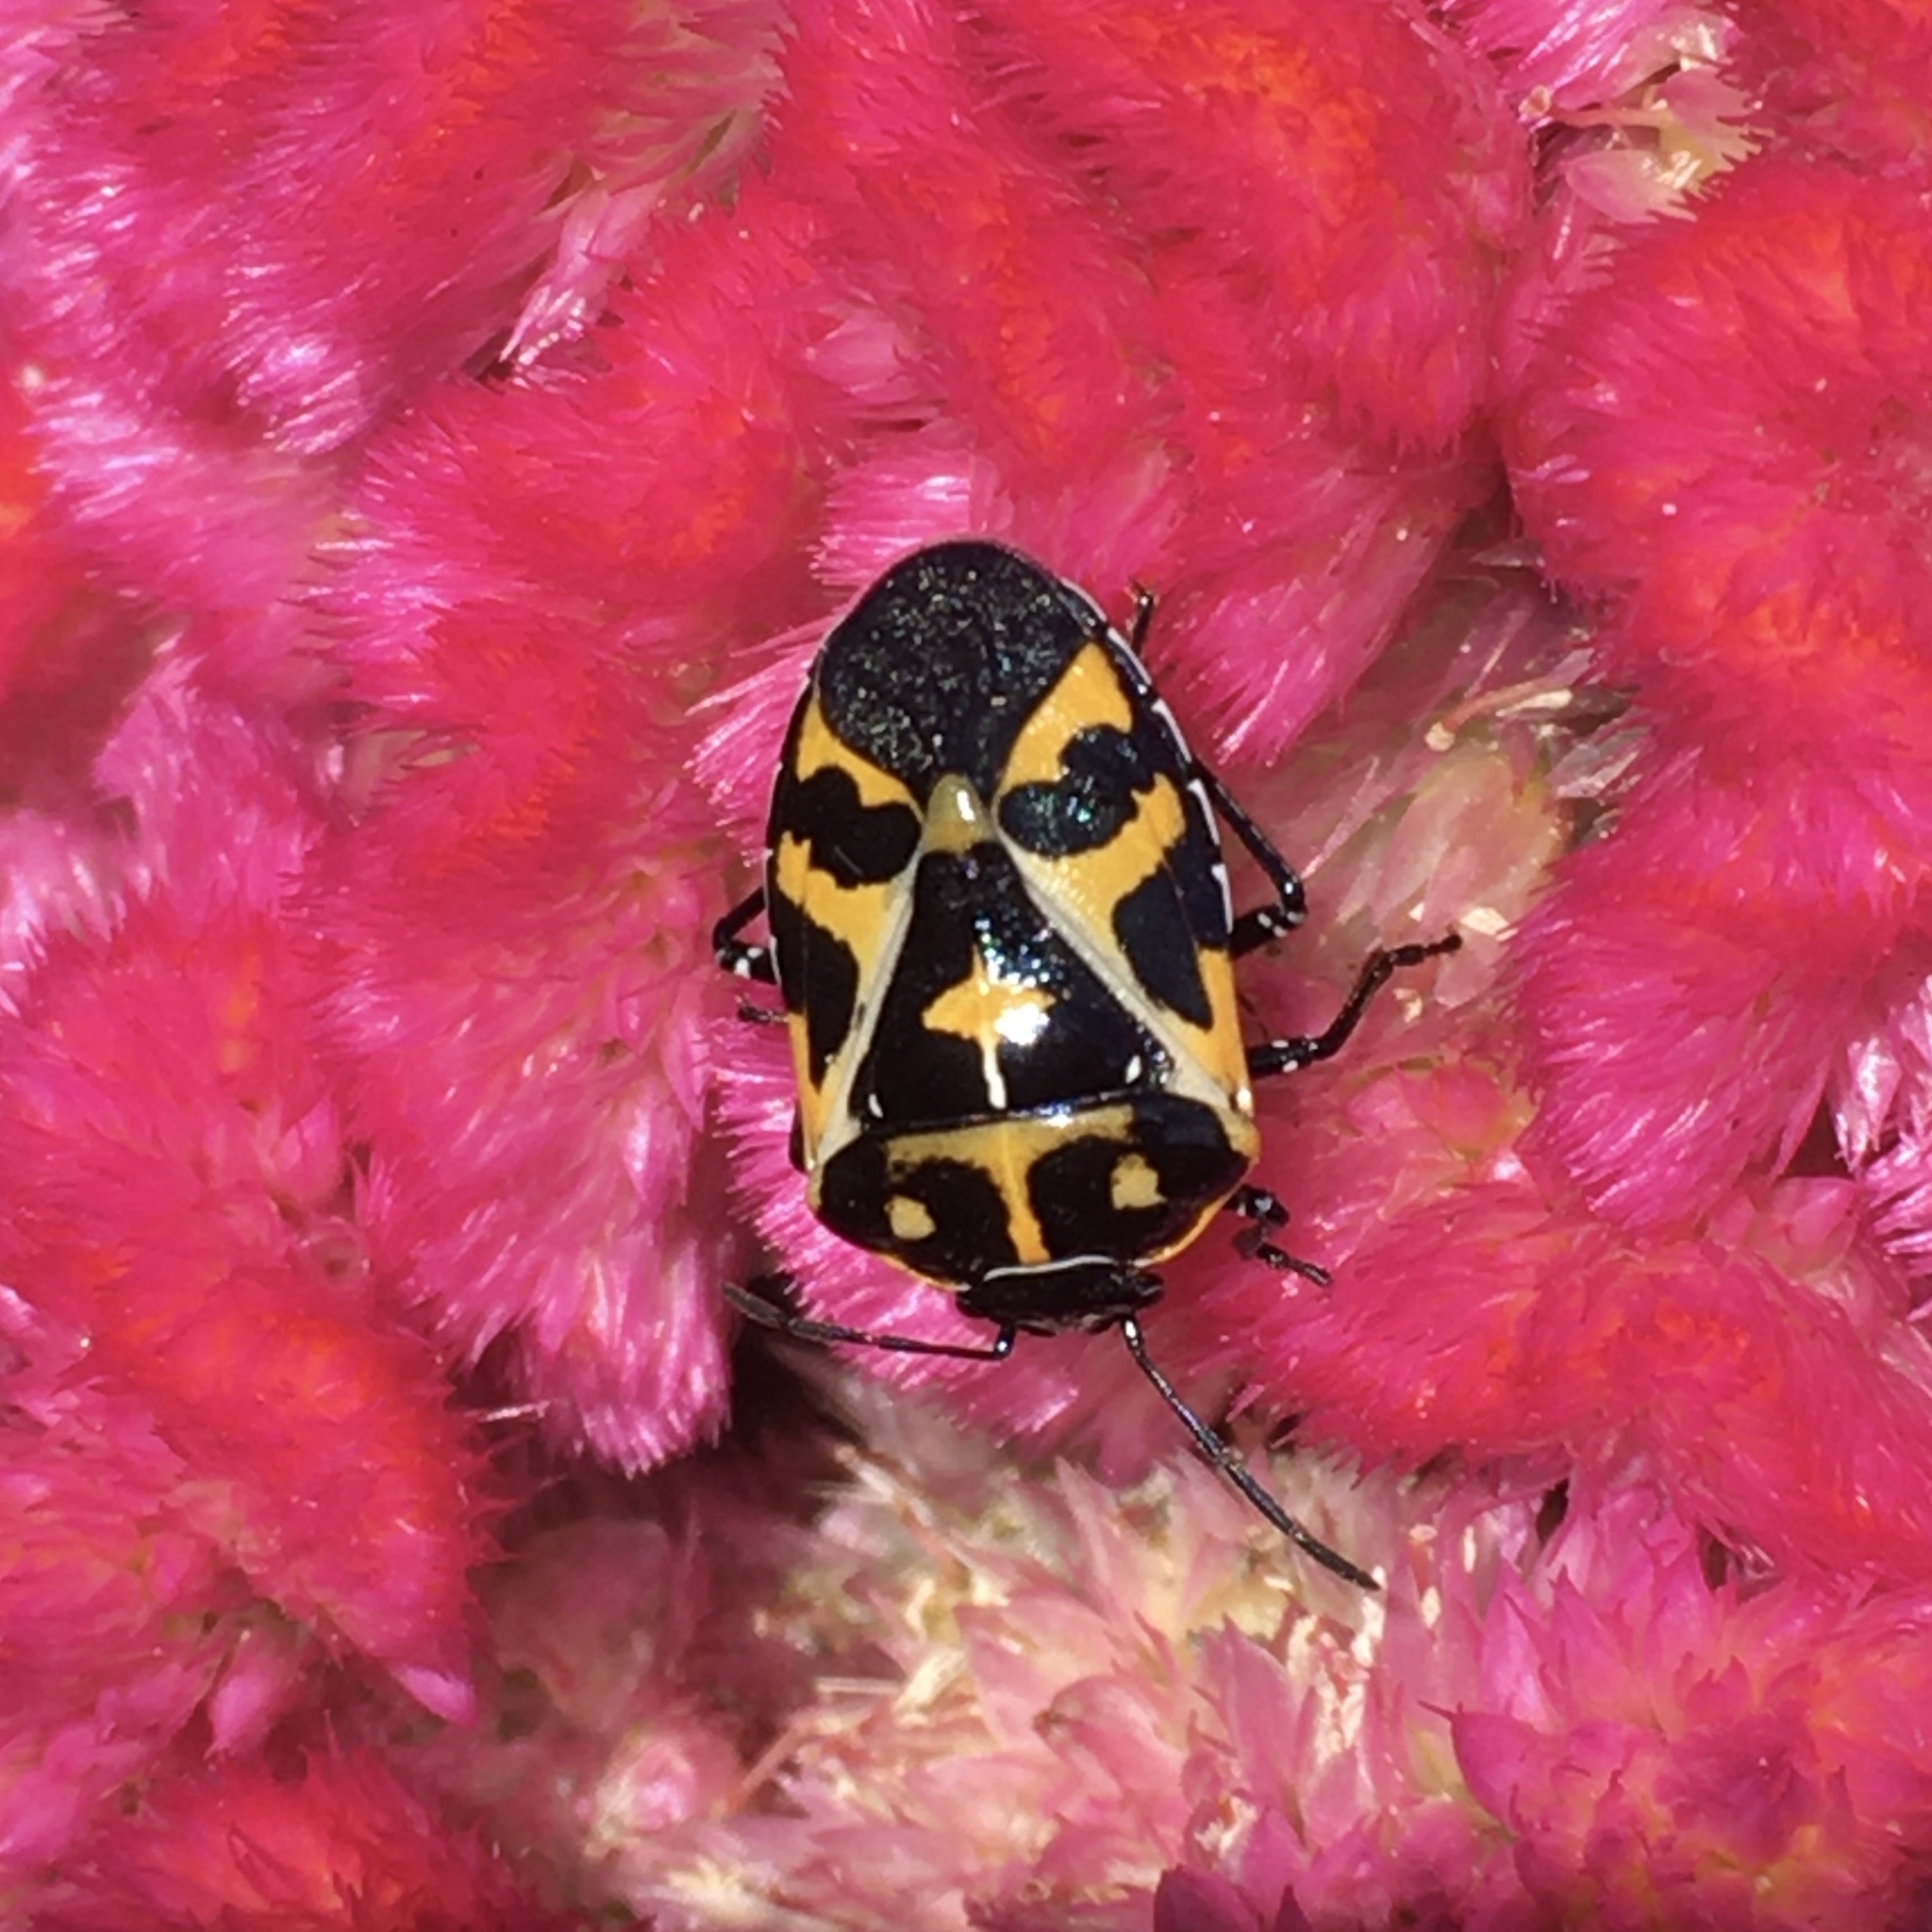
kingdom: Animalia
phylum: Arthropoda
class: Insecta
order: Hemiptera
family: Pentatomidae
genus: Murgantia
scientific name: Murgantia histrionica
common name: Harlequin bug
